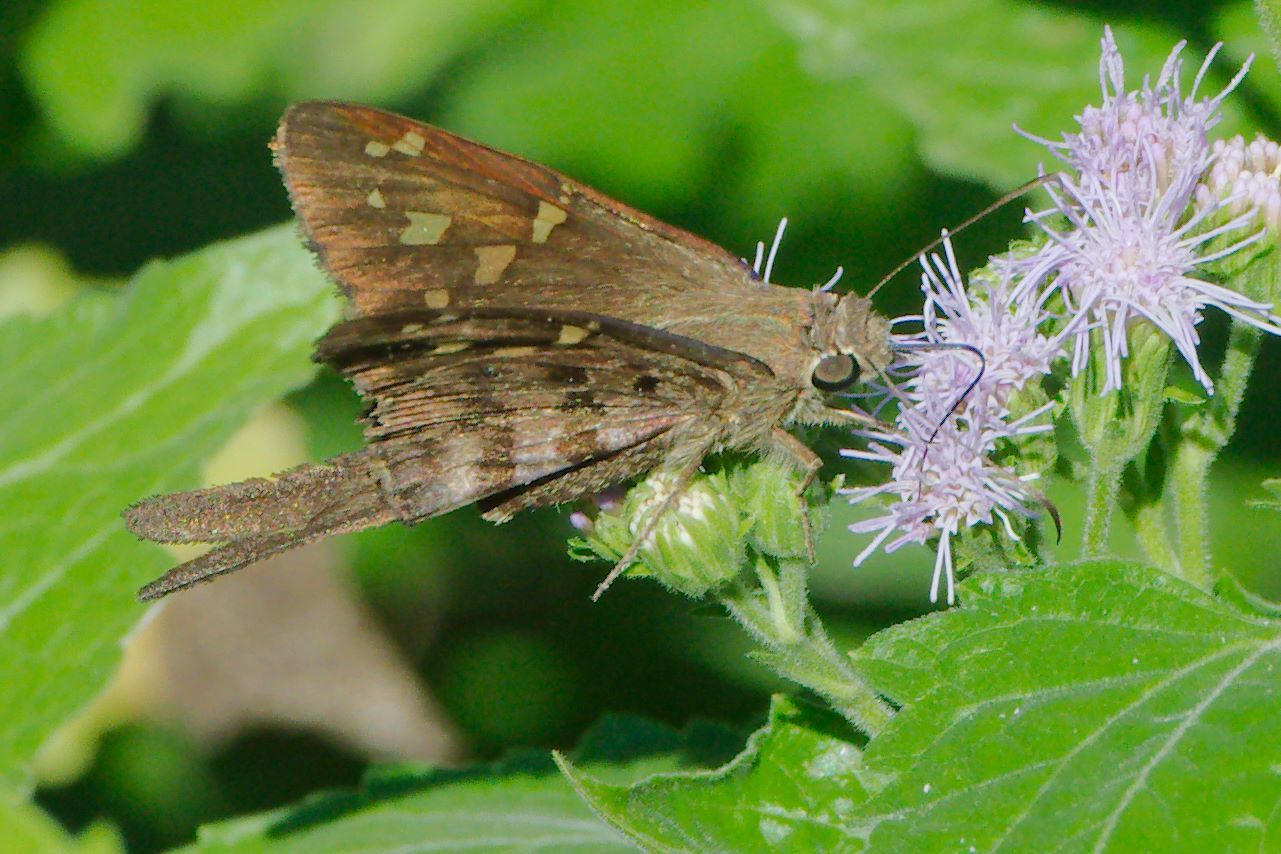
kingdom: Animalia
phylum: Arthropoda
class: Insecta
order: Lepidoptera
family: Hesperiidae
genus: Thorybes
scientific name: Thorybes
